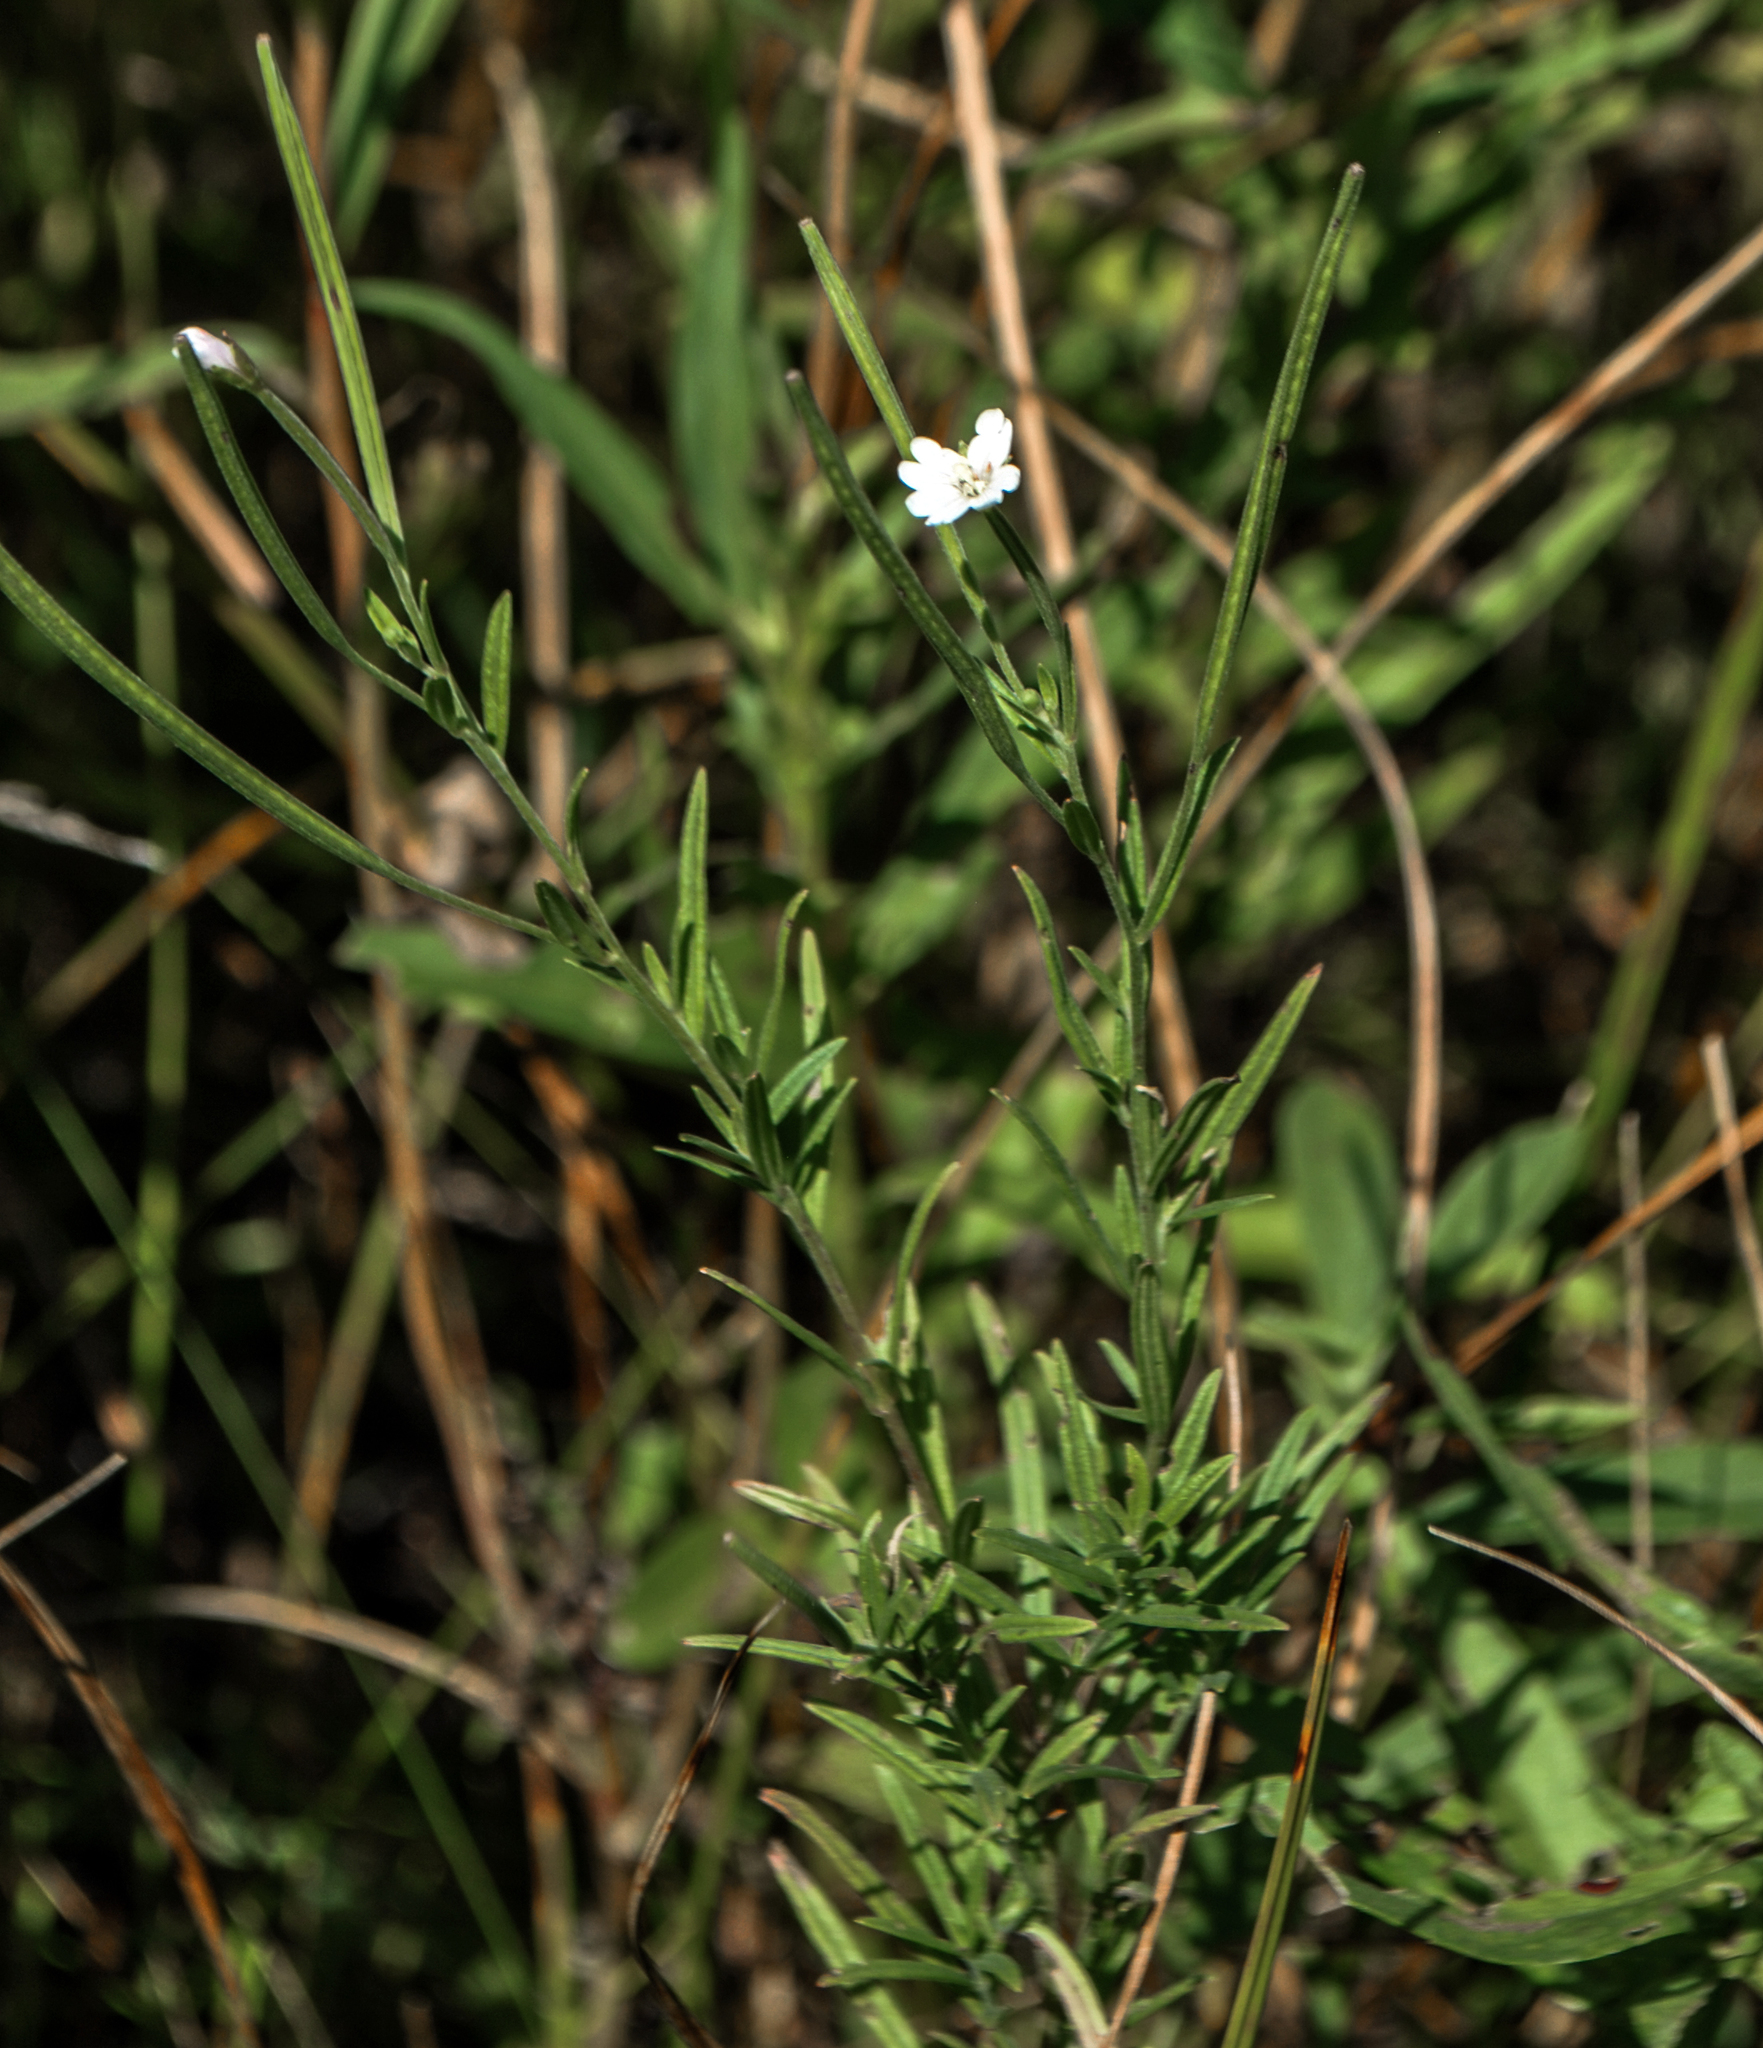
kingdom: Plantae
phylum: Tracheophyta
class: Magnoliopsida
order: Myrtales
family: Onagraceae
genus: Epilobium
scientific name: Epilobium palustre
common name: Marsh willowherb
